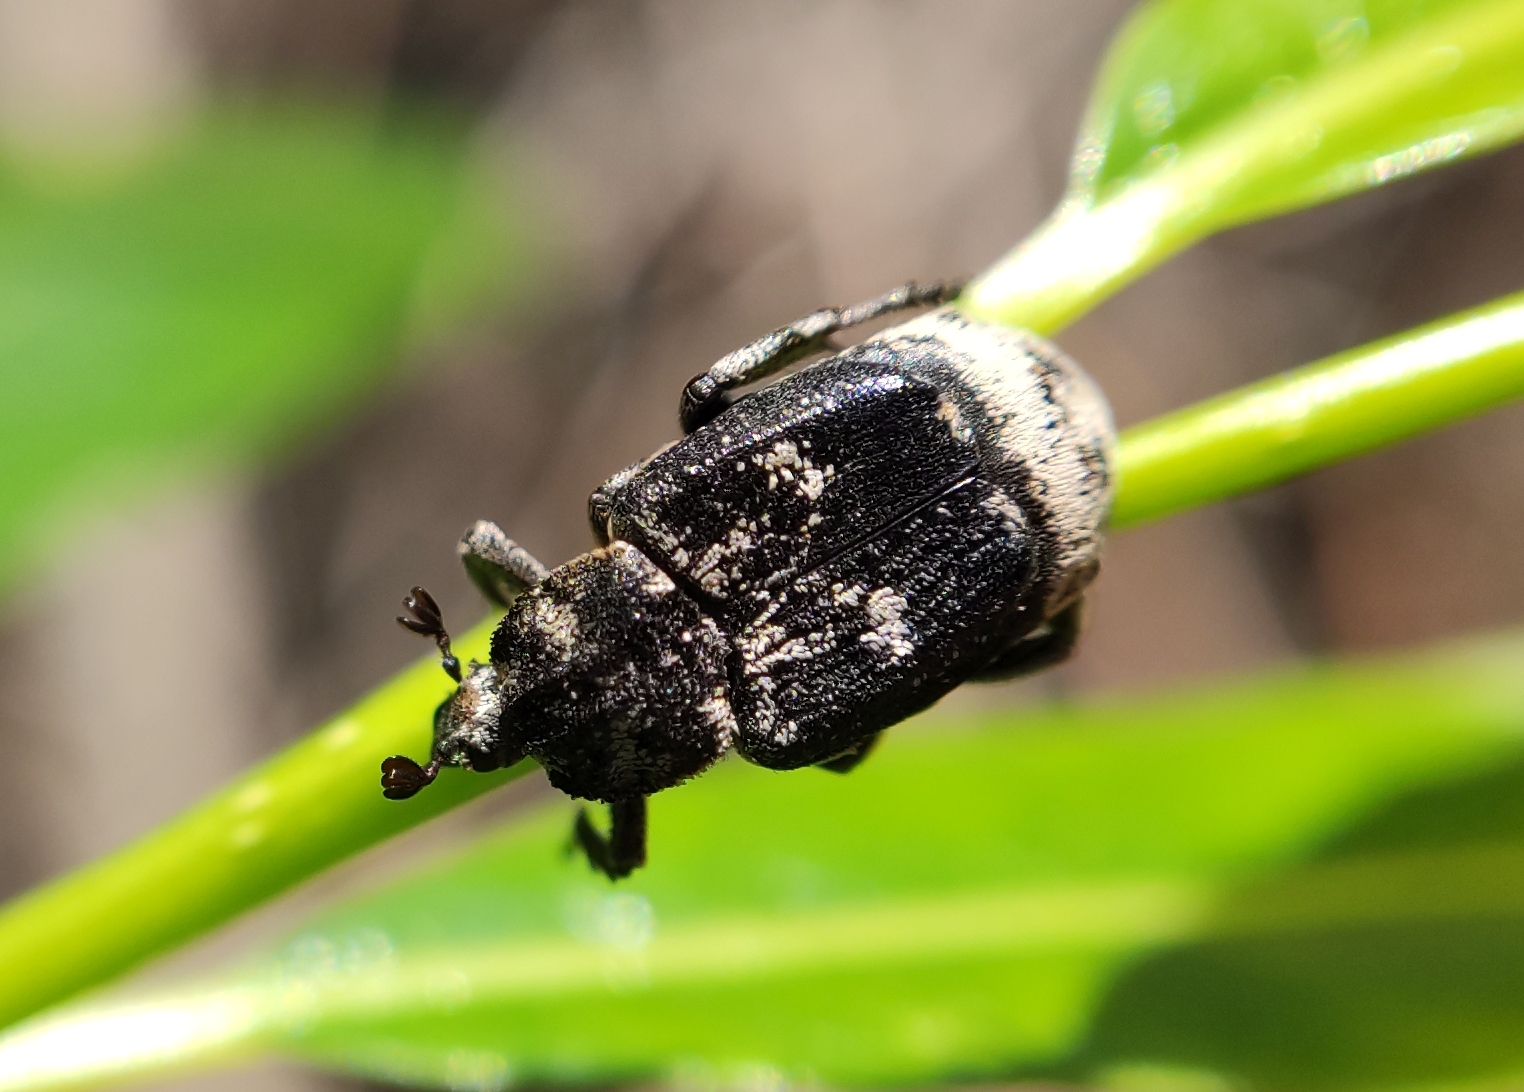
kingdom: Animalia
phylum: Arthropoda
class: Insecta
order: Coleoptera
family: Scarabaeidae
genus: Valgus
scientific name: Valgus hemipterus
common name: Bug flower chafer
